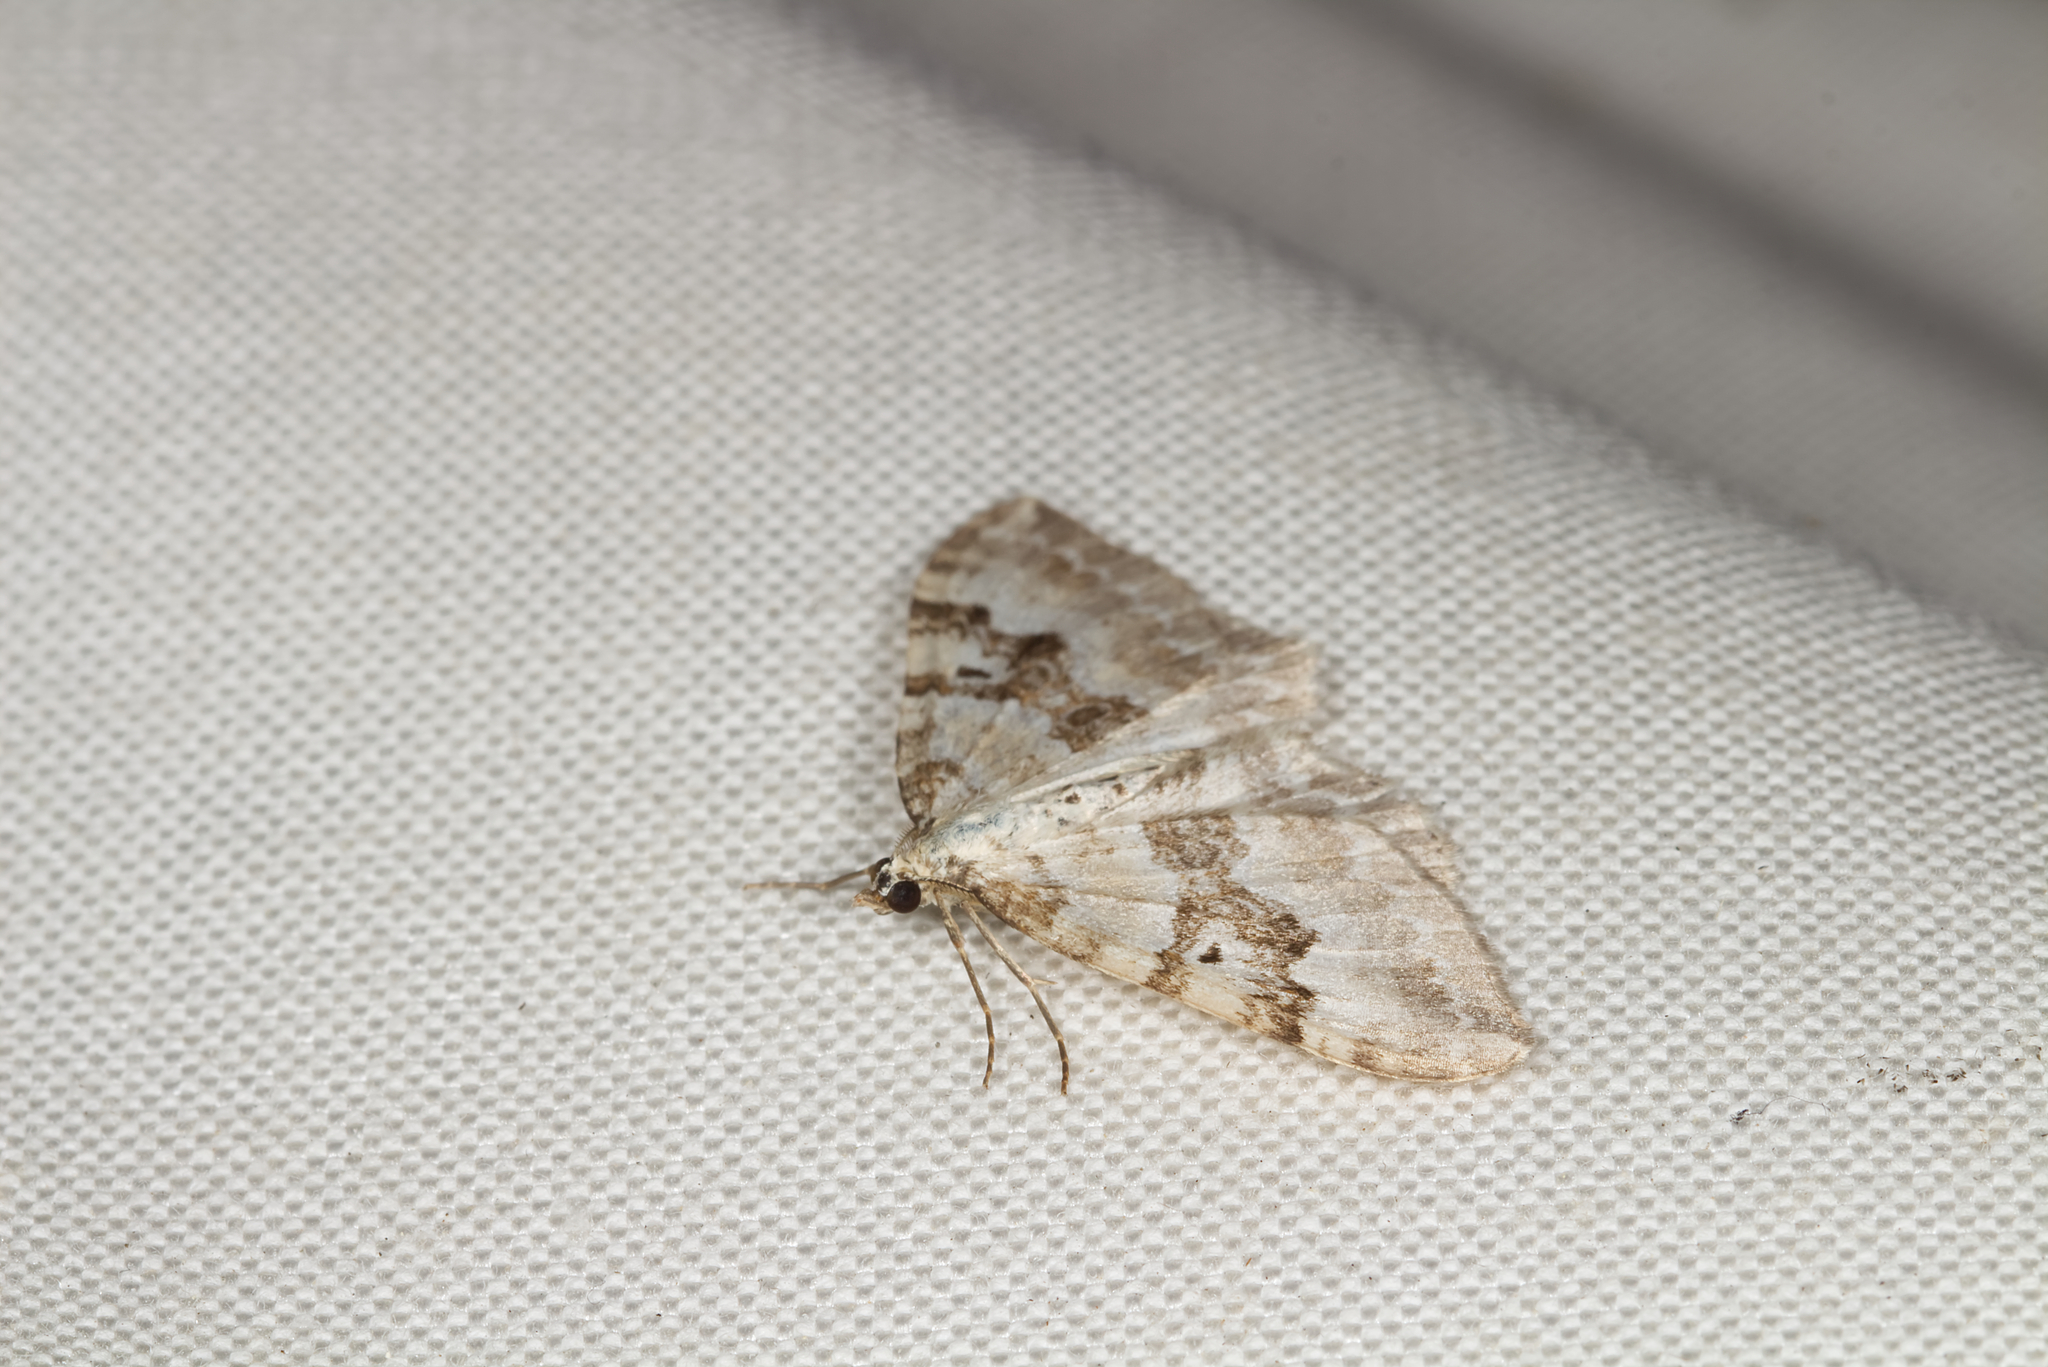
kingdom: Animalia
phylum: Arthropoda
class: Insecta
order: Lepidoptera
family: Geometridae
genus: Xanthorhoe
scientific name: Xanthorhoe montanata
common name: Silver-ground carpet
